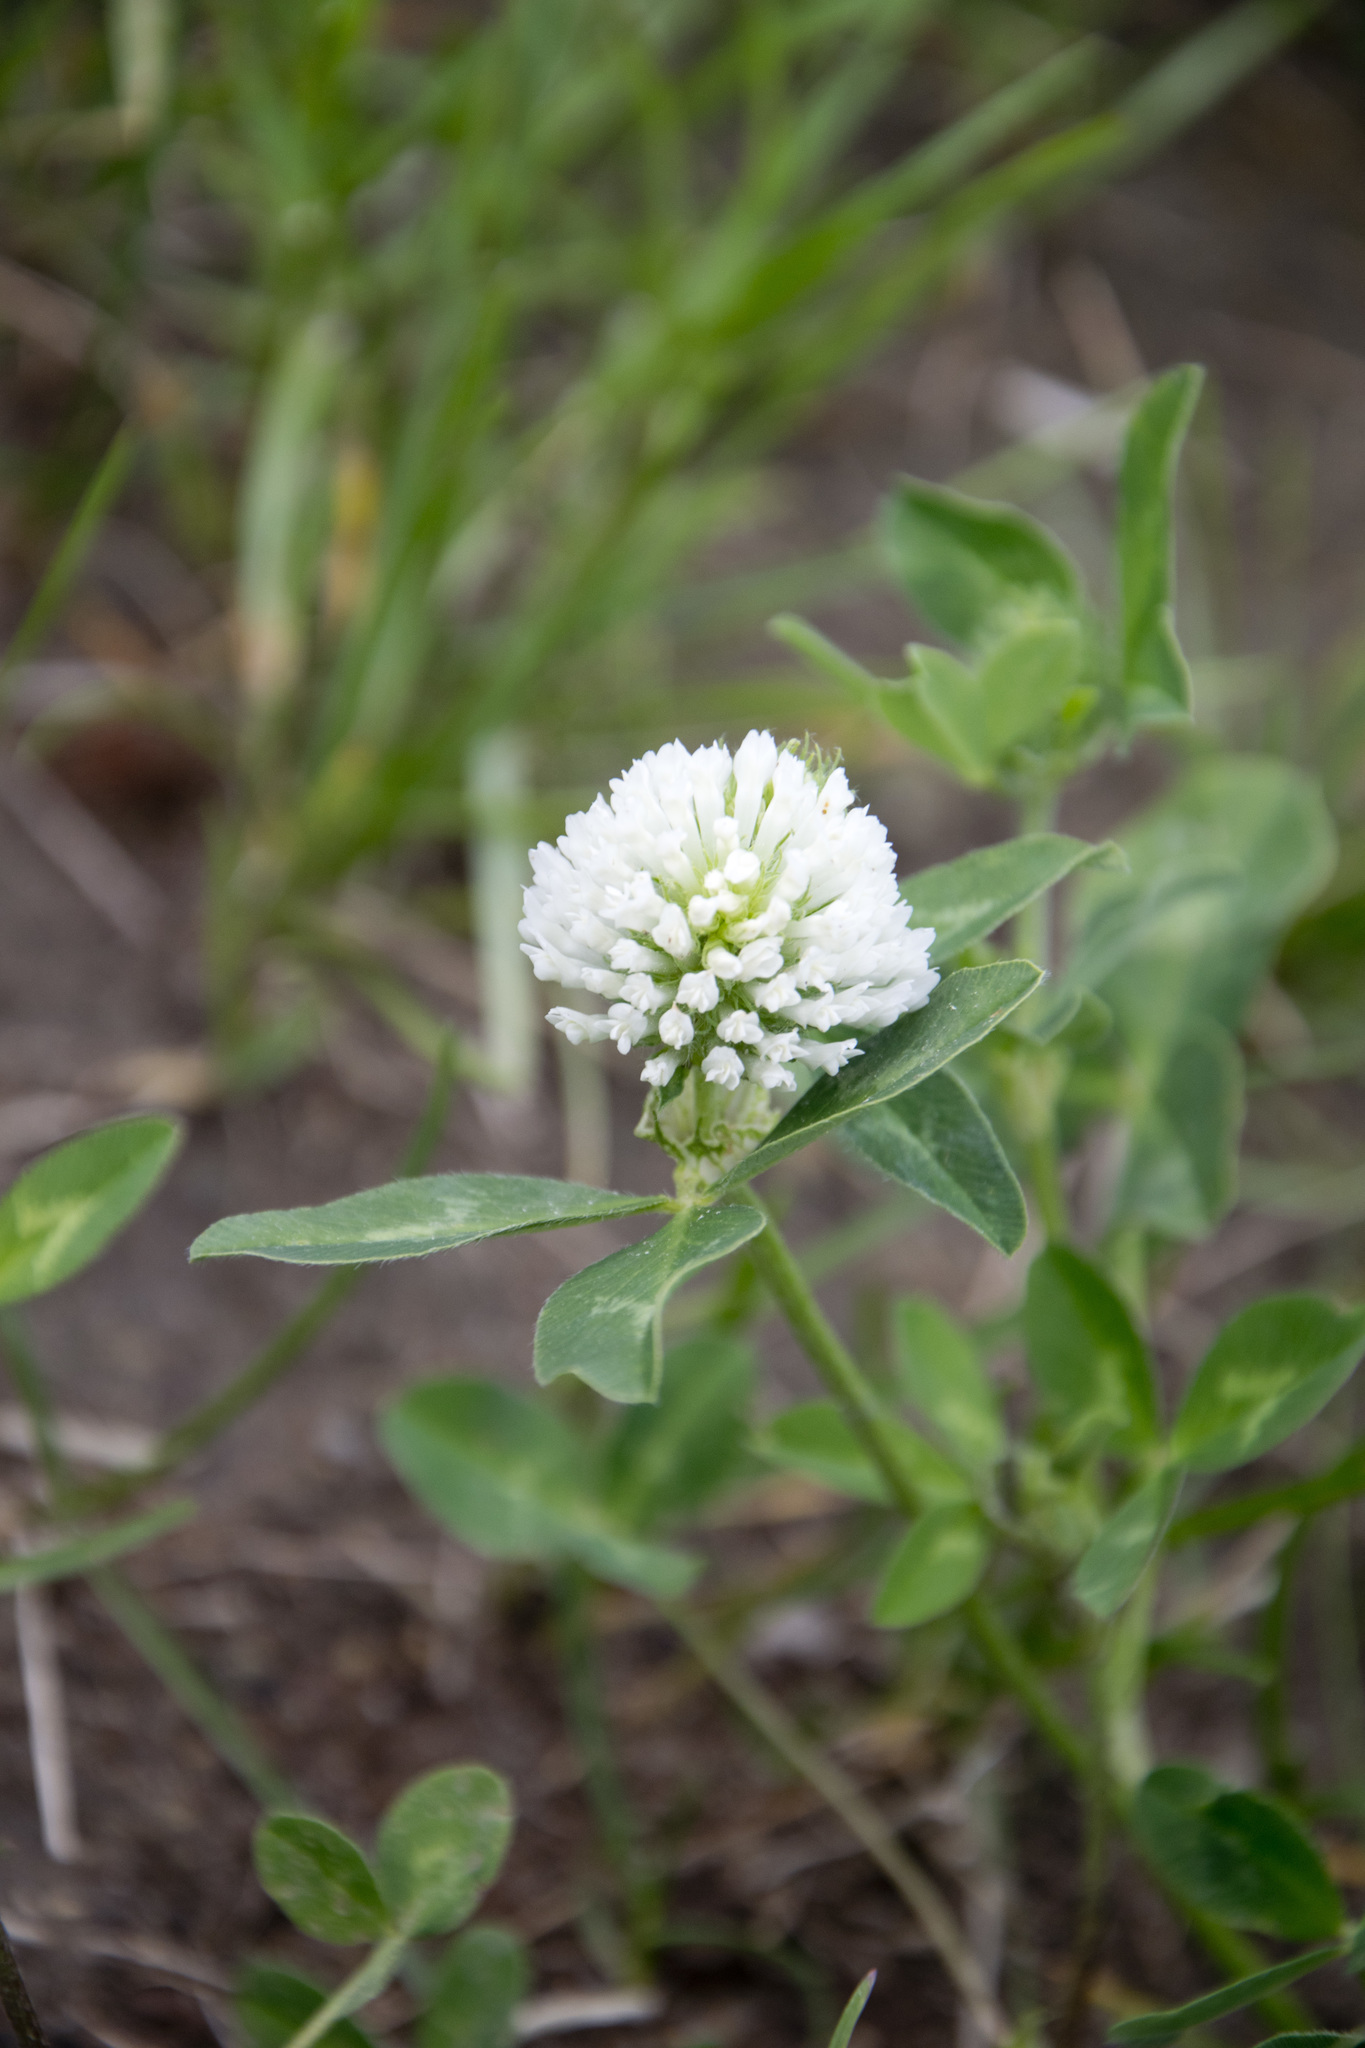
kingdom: Plantae
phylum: Tracheophyta
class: Magnoliopsida
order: Fabales
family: Fabaceae
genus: Trifolium
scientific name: Trifolium pratense
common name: Red clover
